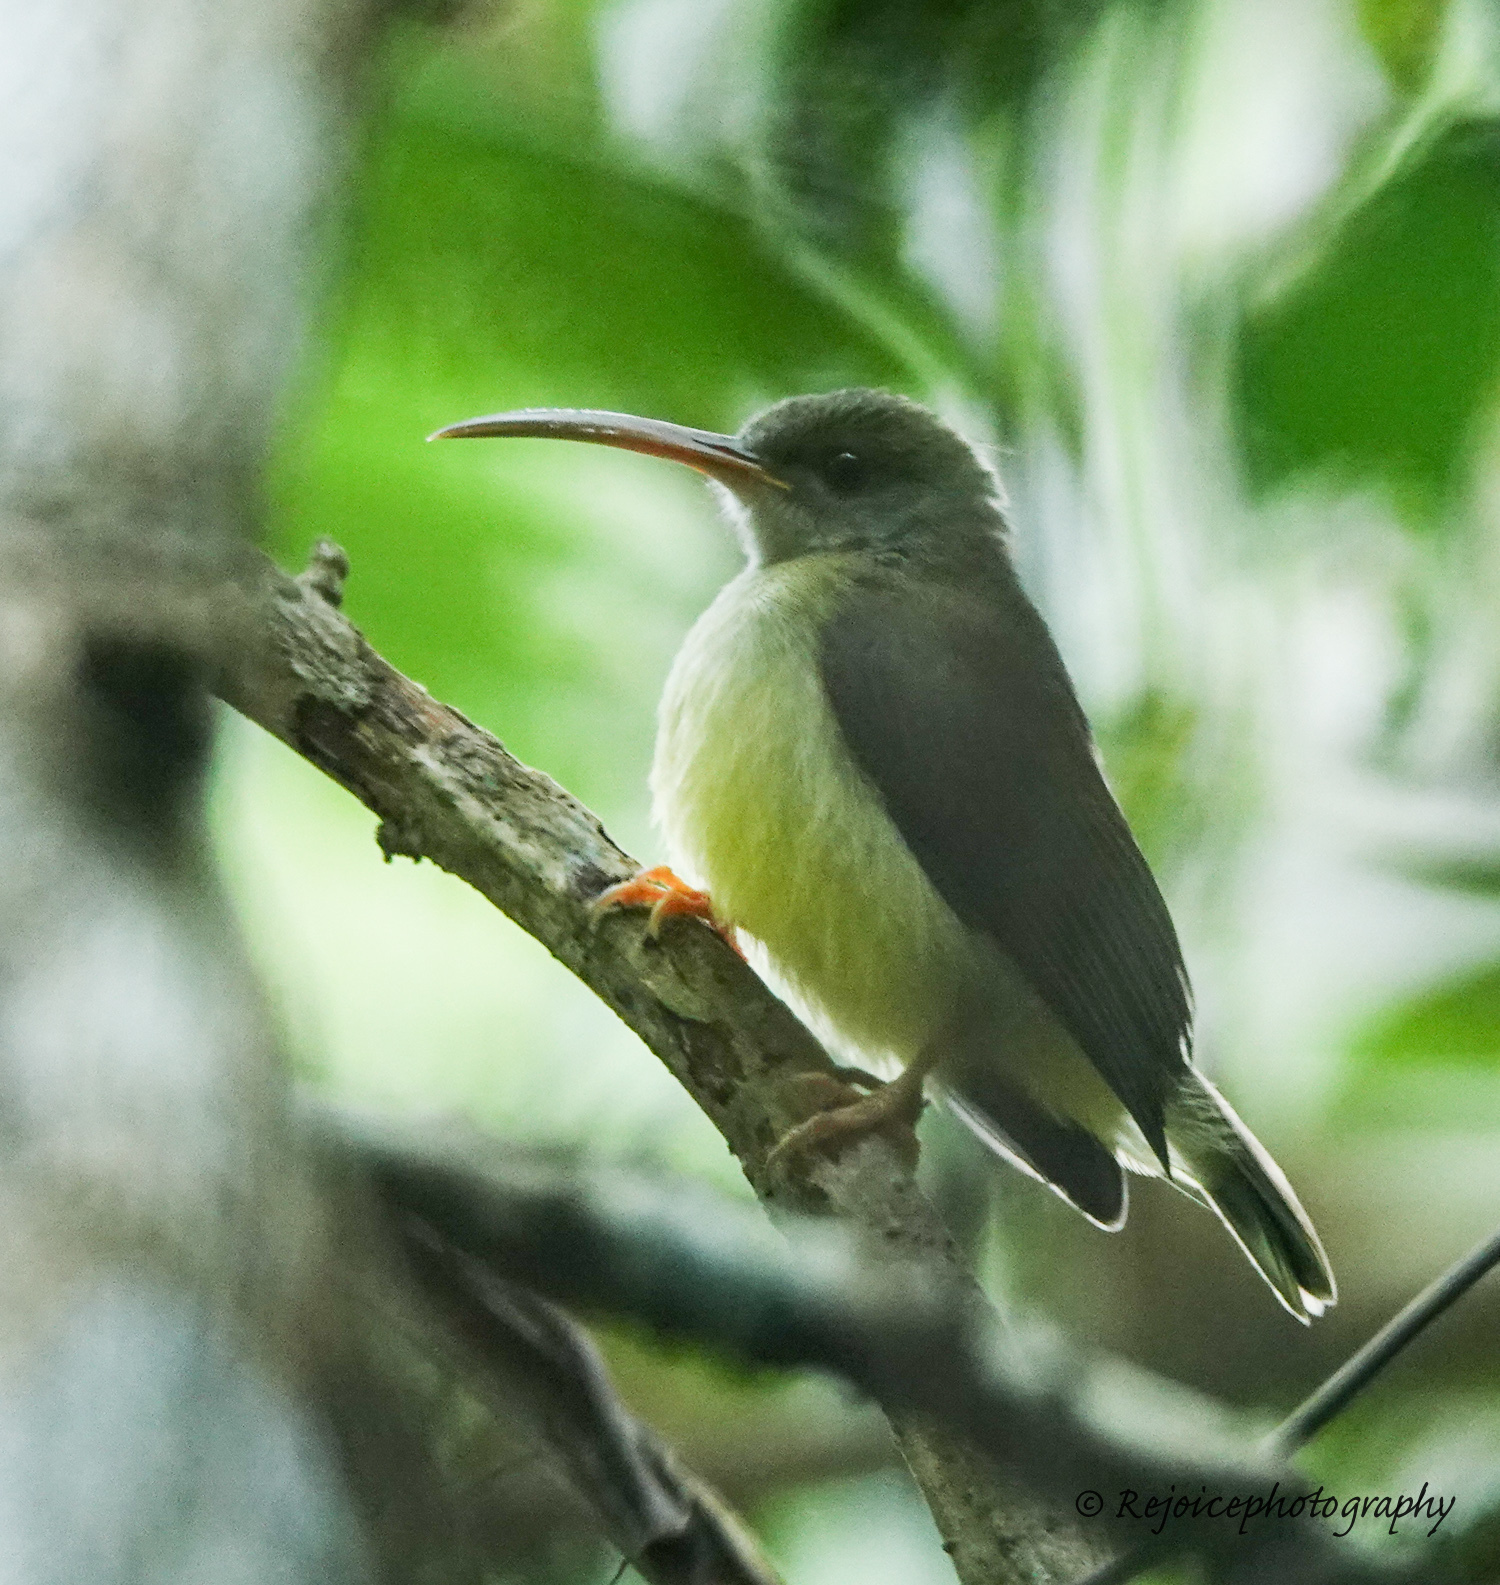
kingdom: Animalia
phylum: Chordata
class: Aves
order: Passeriformes
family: Nectariniidae
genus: Arachnothera
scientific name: Arachnothera longirostra
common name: Little spiderhunter
